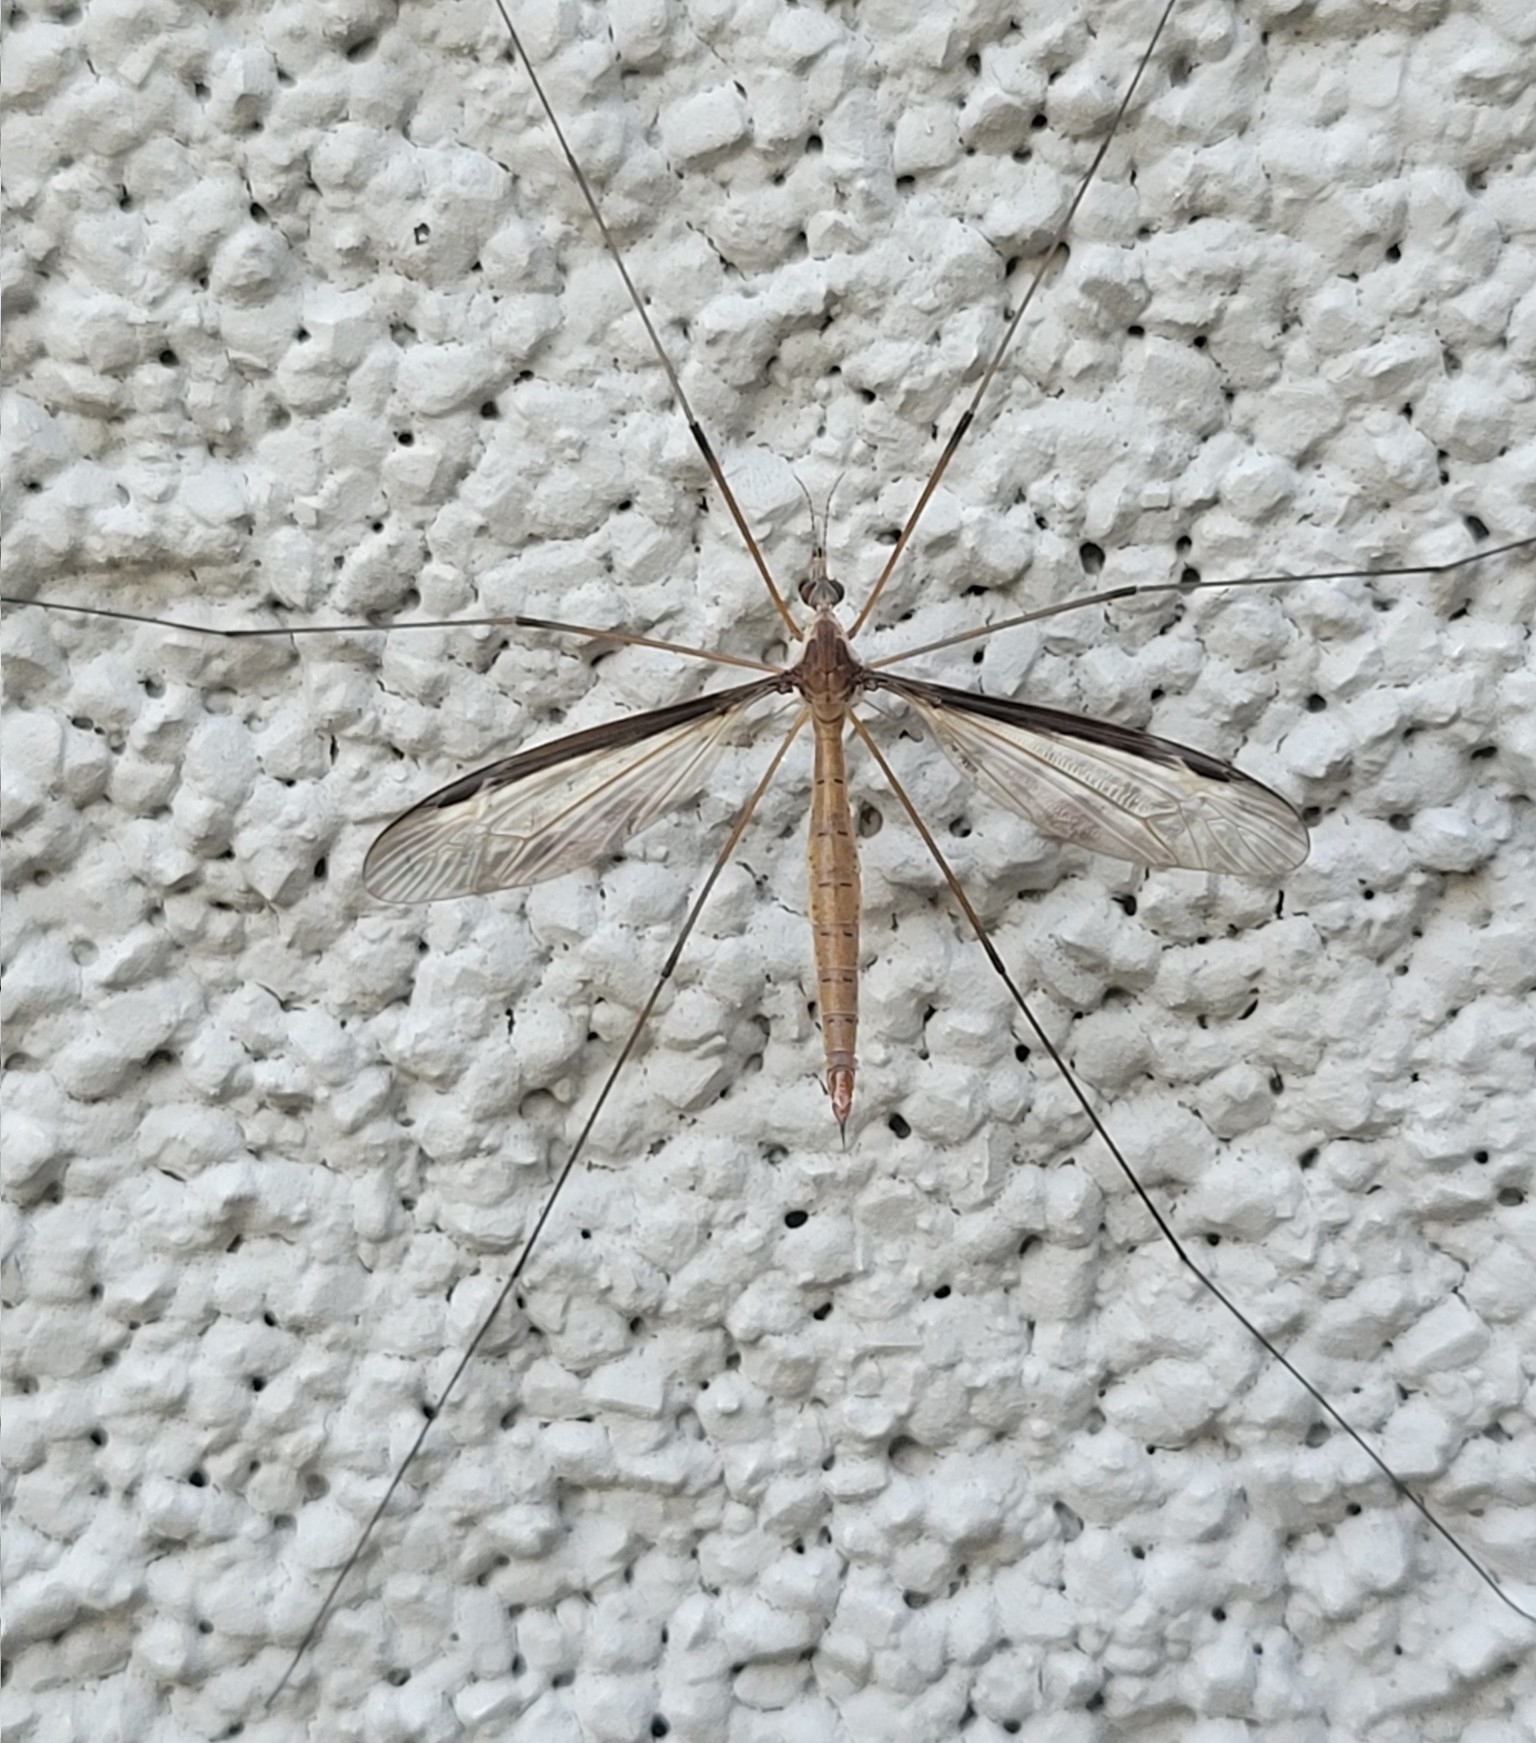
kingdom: Animalia
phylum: Arthropoda
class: Insecta
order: Diptera
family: Tipulidae
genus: Tipula
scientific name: Tipula sayi
